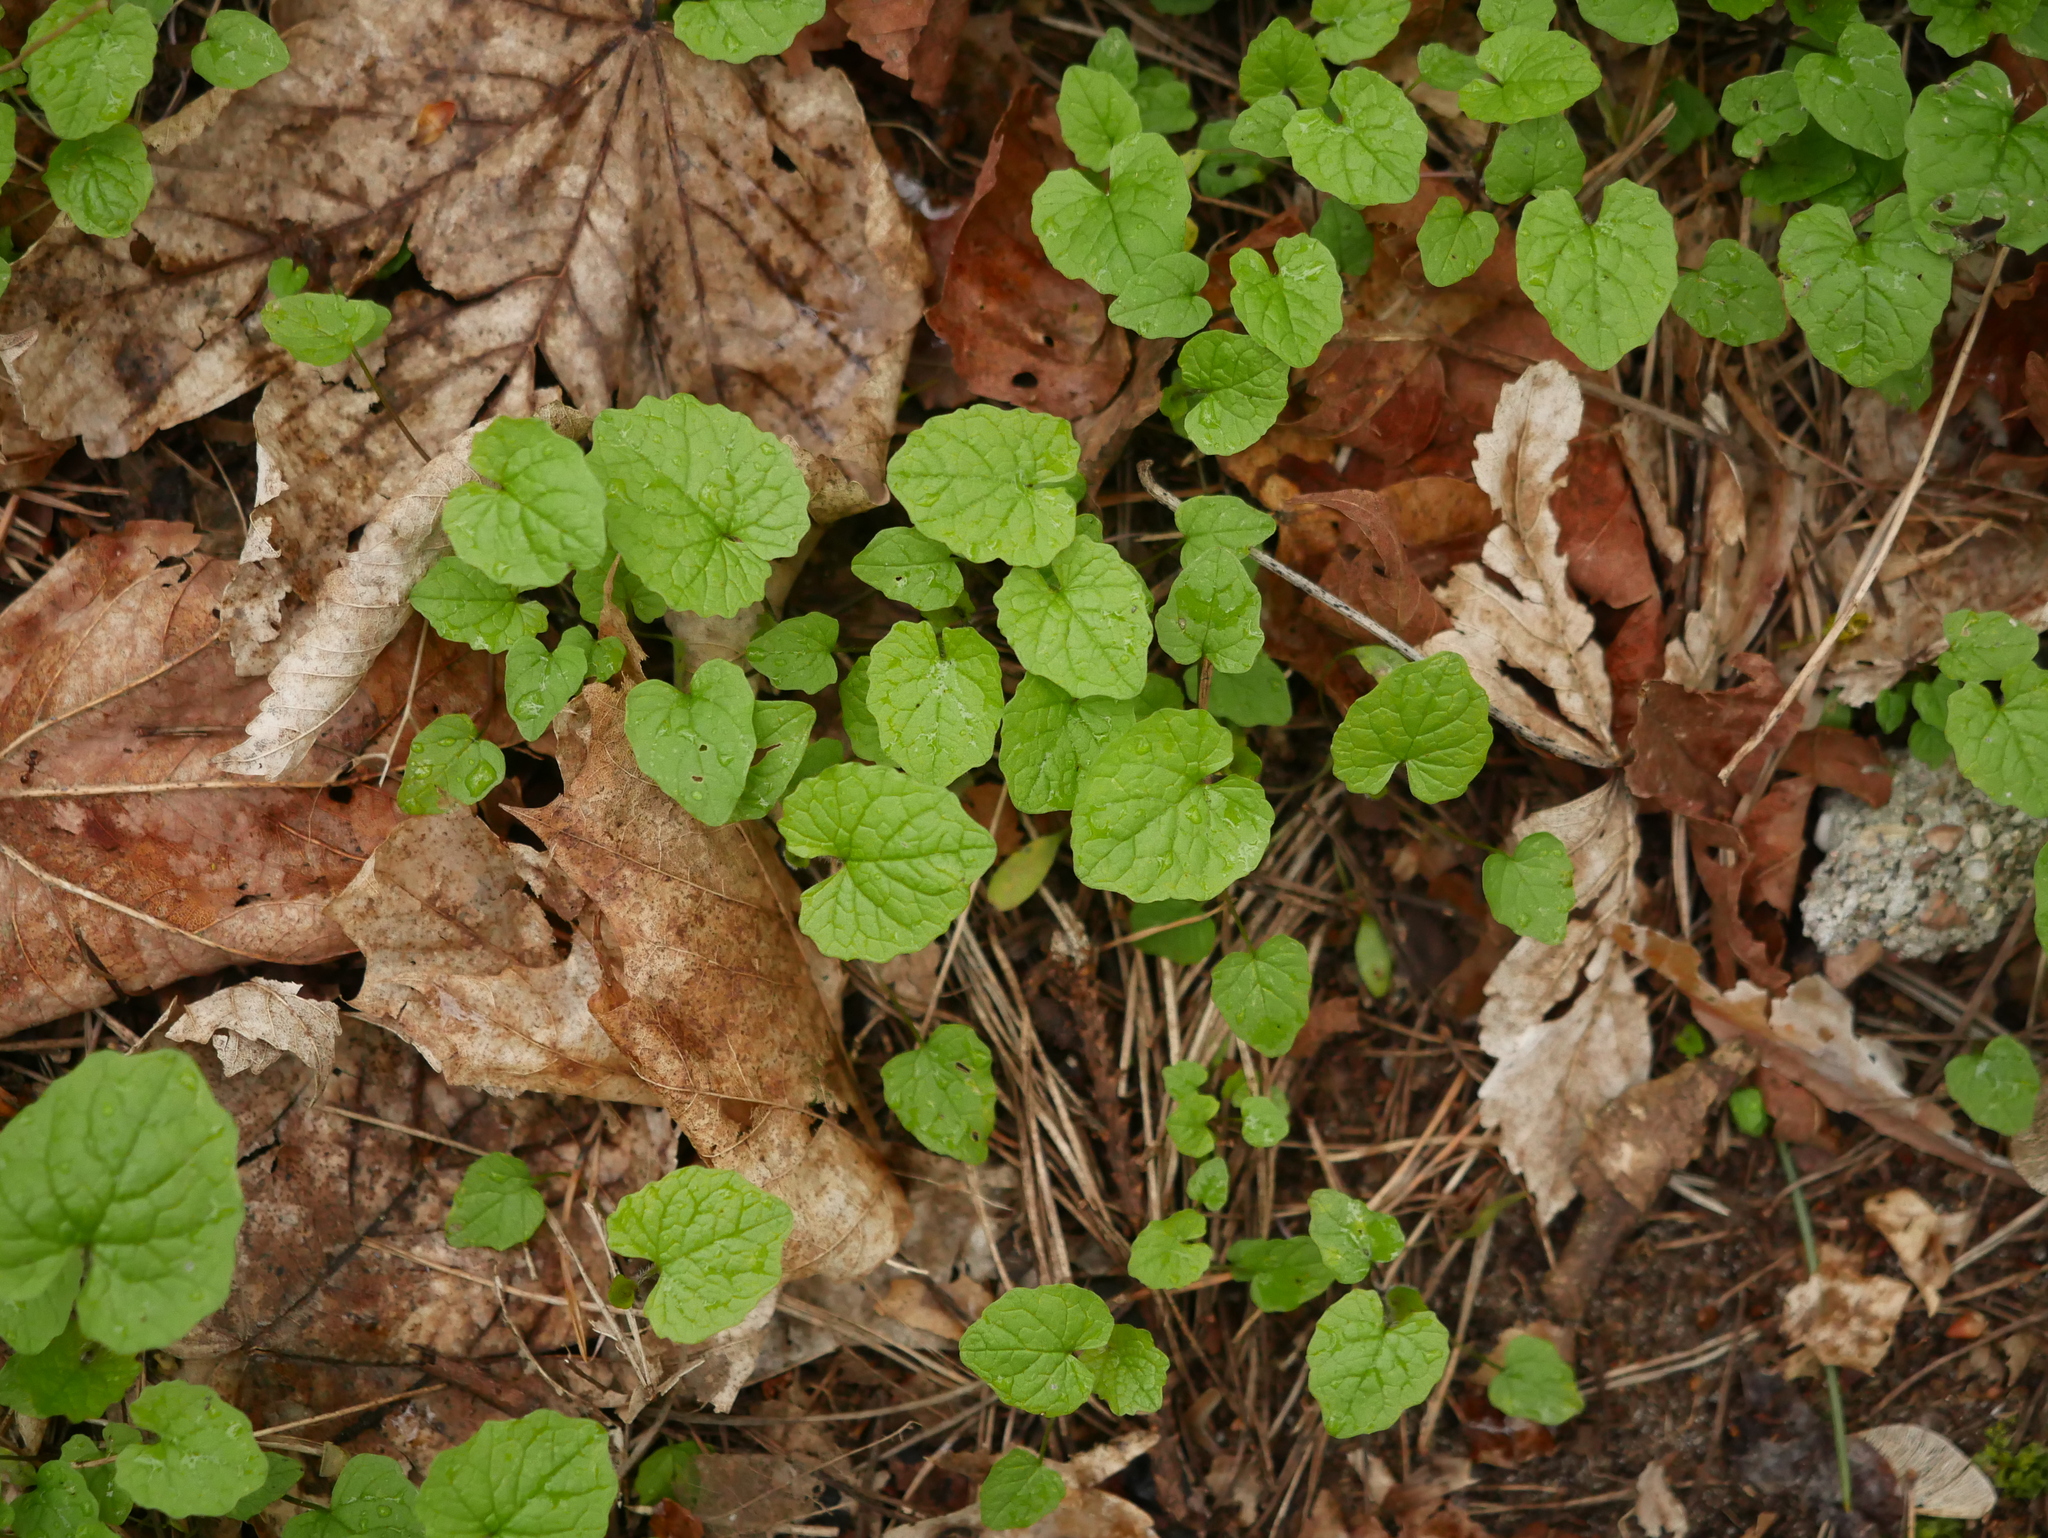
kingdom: Plantae
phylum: Tracheophyta
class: Magnoliopsida
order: Brassicales
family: Brassicaceae
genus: Alliaria
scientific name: Alliaria petiolata
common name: Garlic mustard
